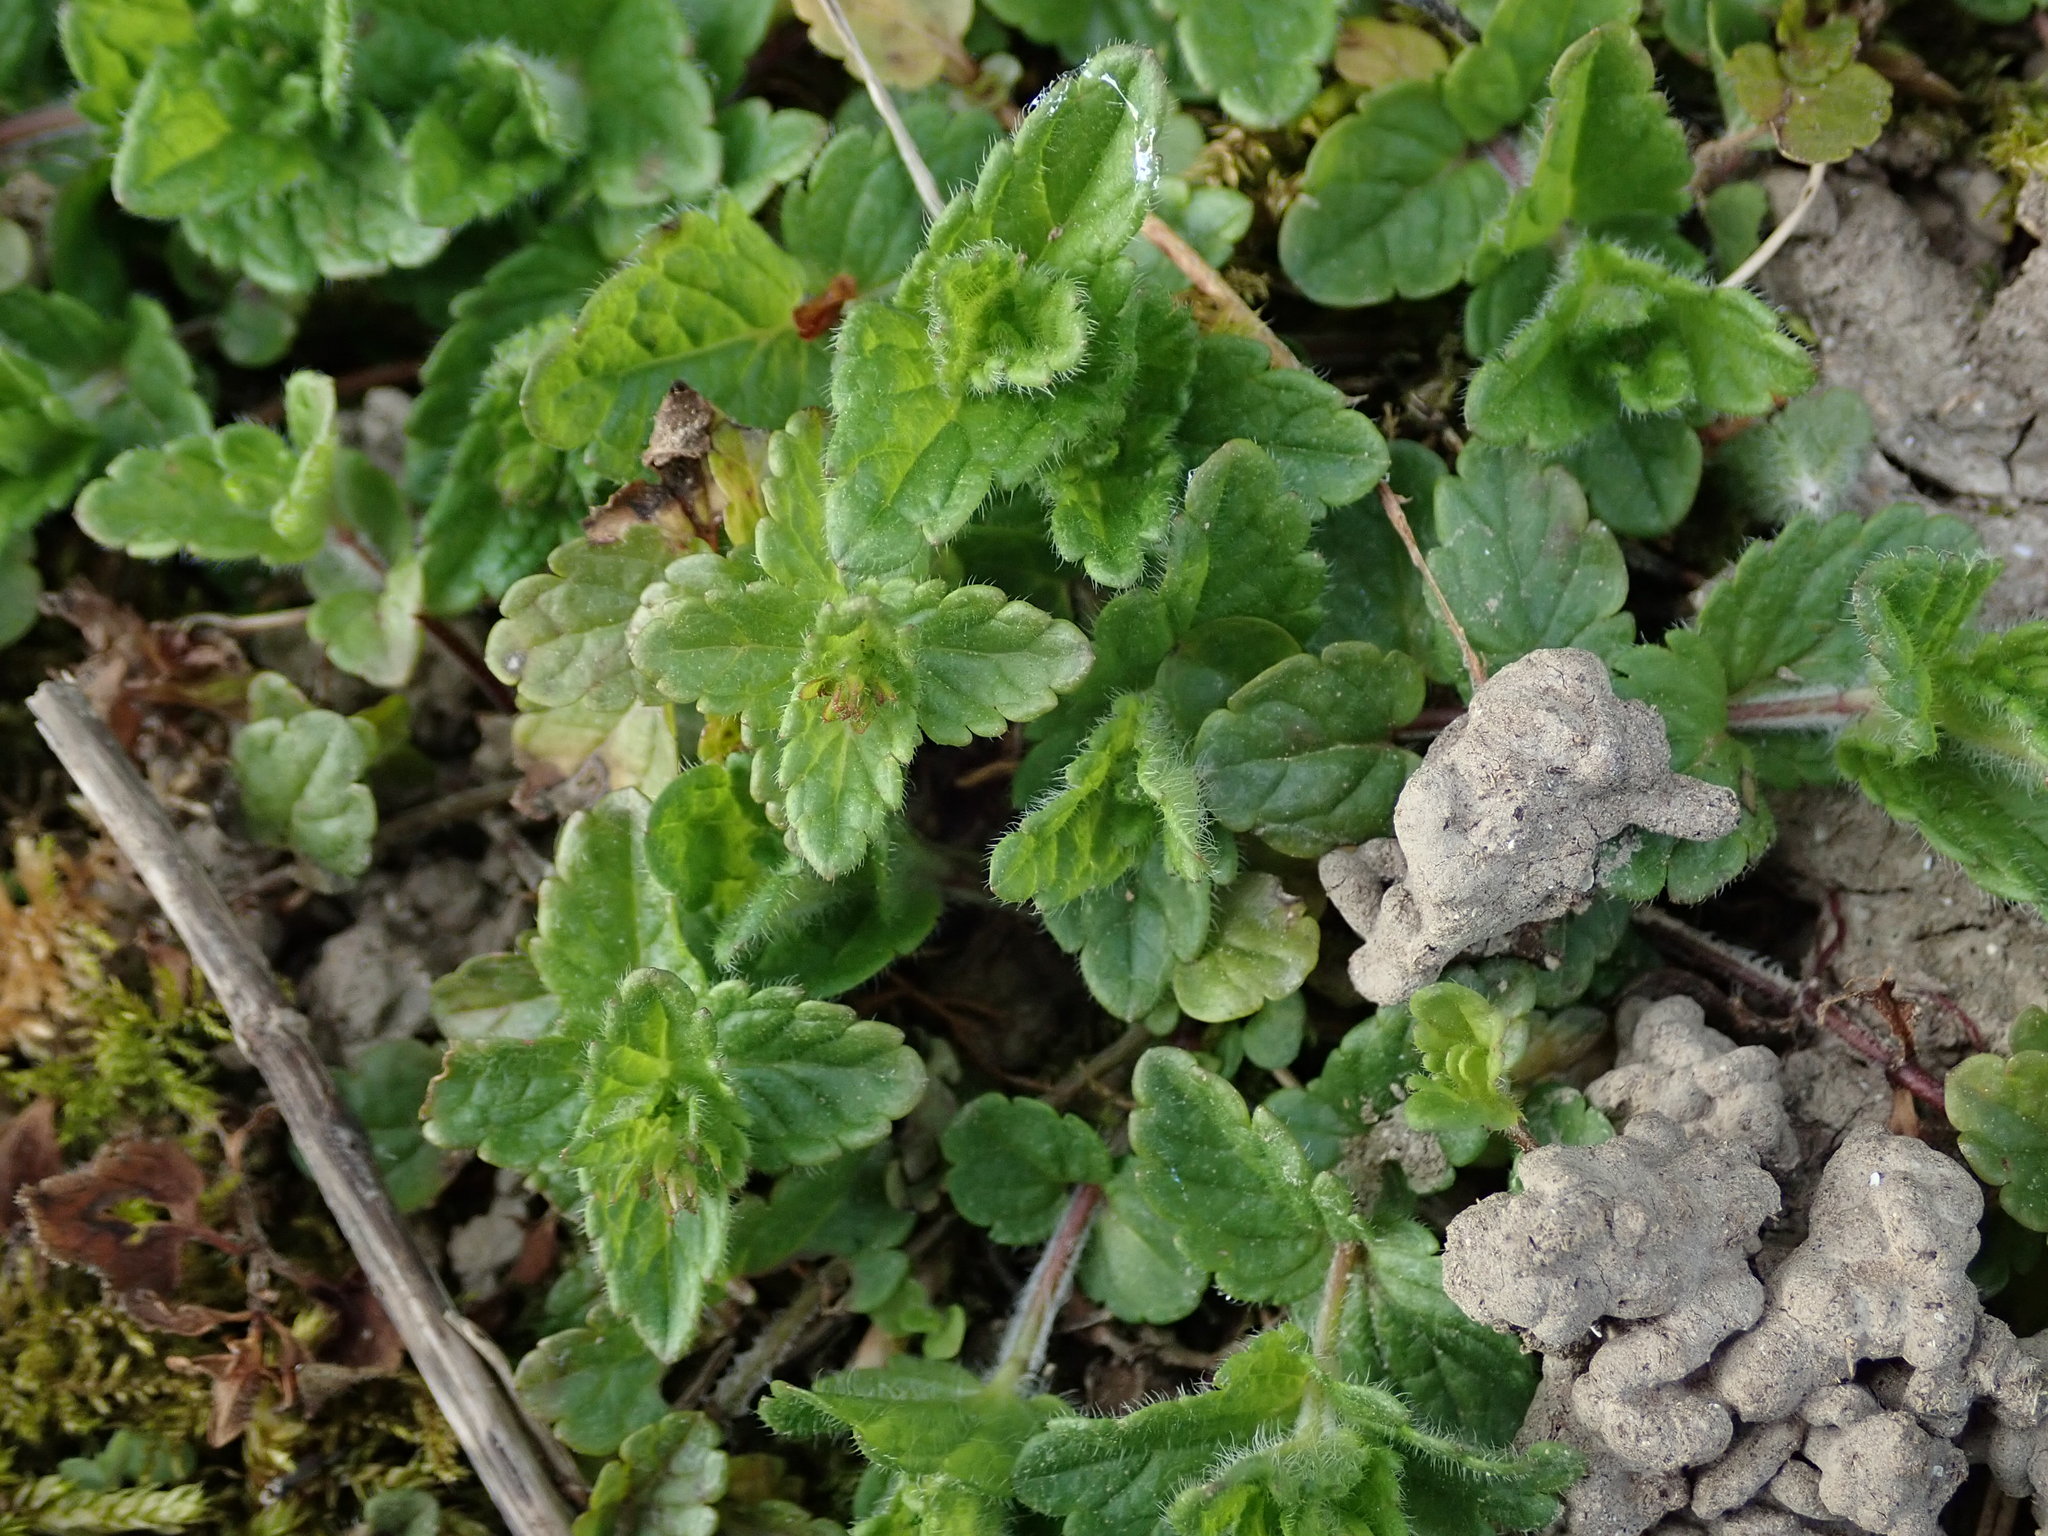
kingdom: Plantae
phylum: Tracheophyta
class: Magnoliopsida
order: Lamiales
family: Plantaginaceae
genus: Veronica
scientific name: Veronica chamaedrys
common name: Germander speedwell
